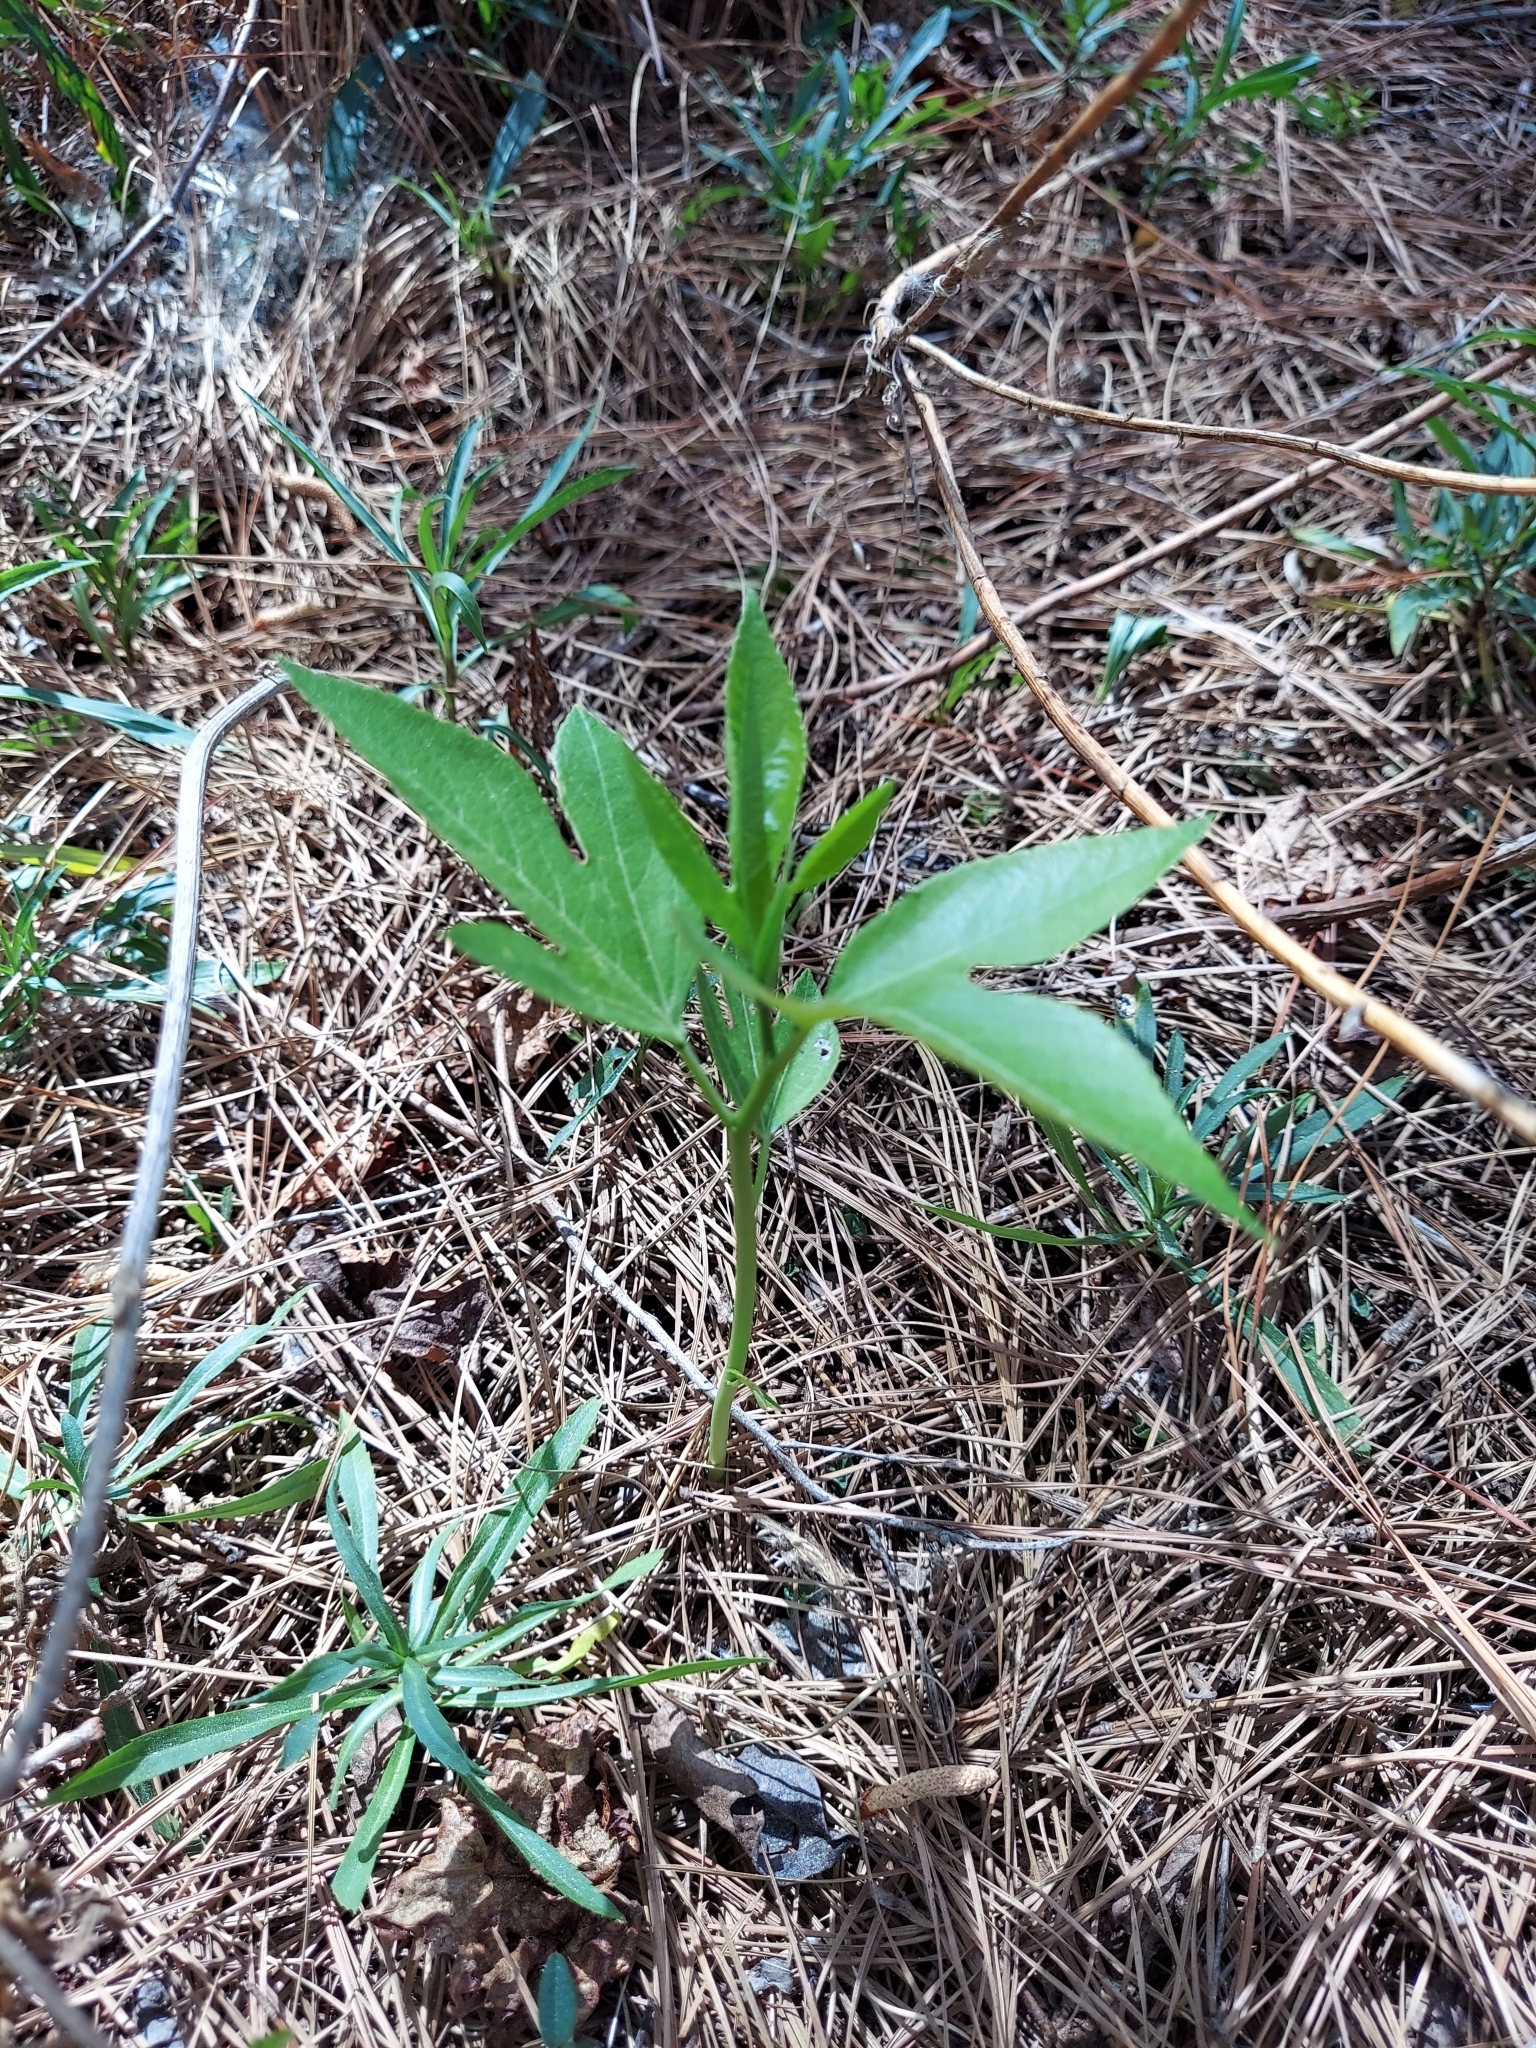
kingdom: Plantae
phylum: Tracheophyta
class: Magnoliopsida
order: Malpighiales
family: Passifloraceae
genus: Passiflora
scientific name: Passiflora incarnata
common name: Apricot-vine
